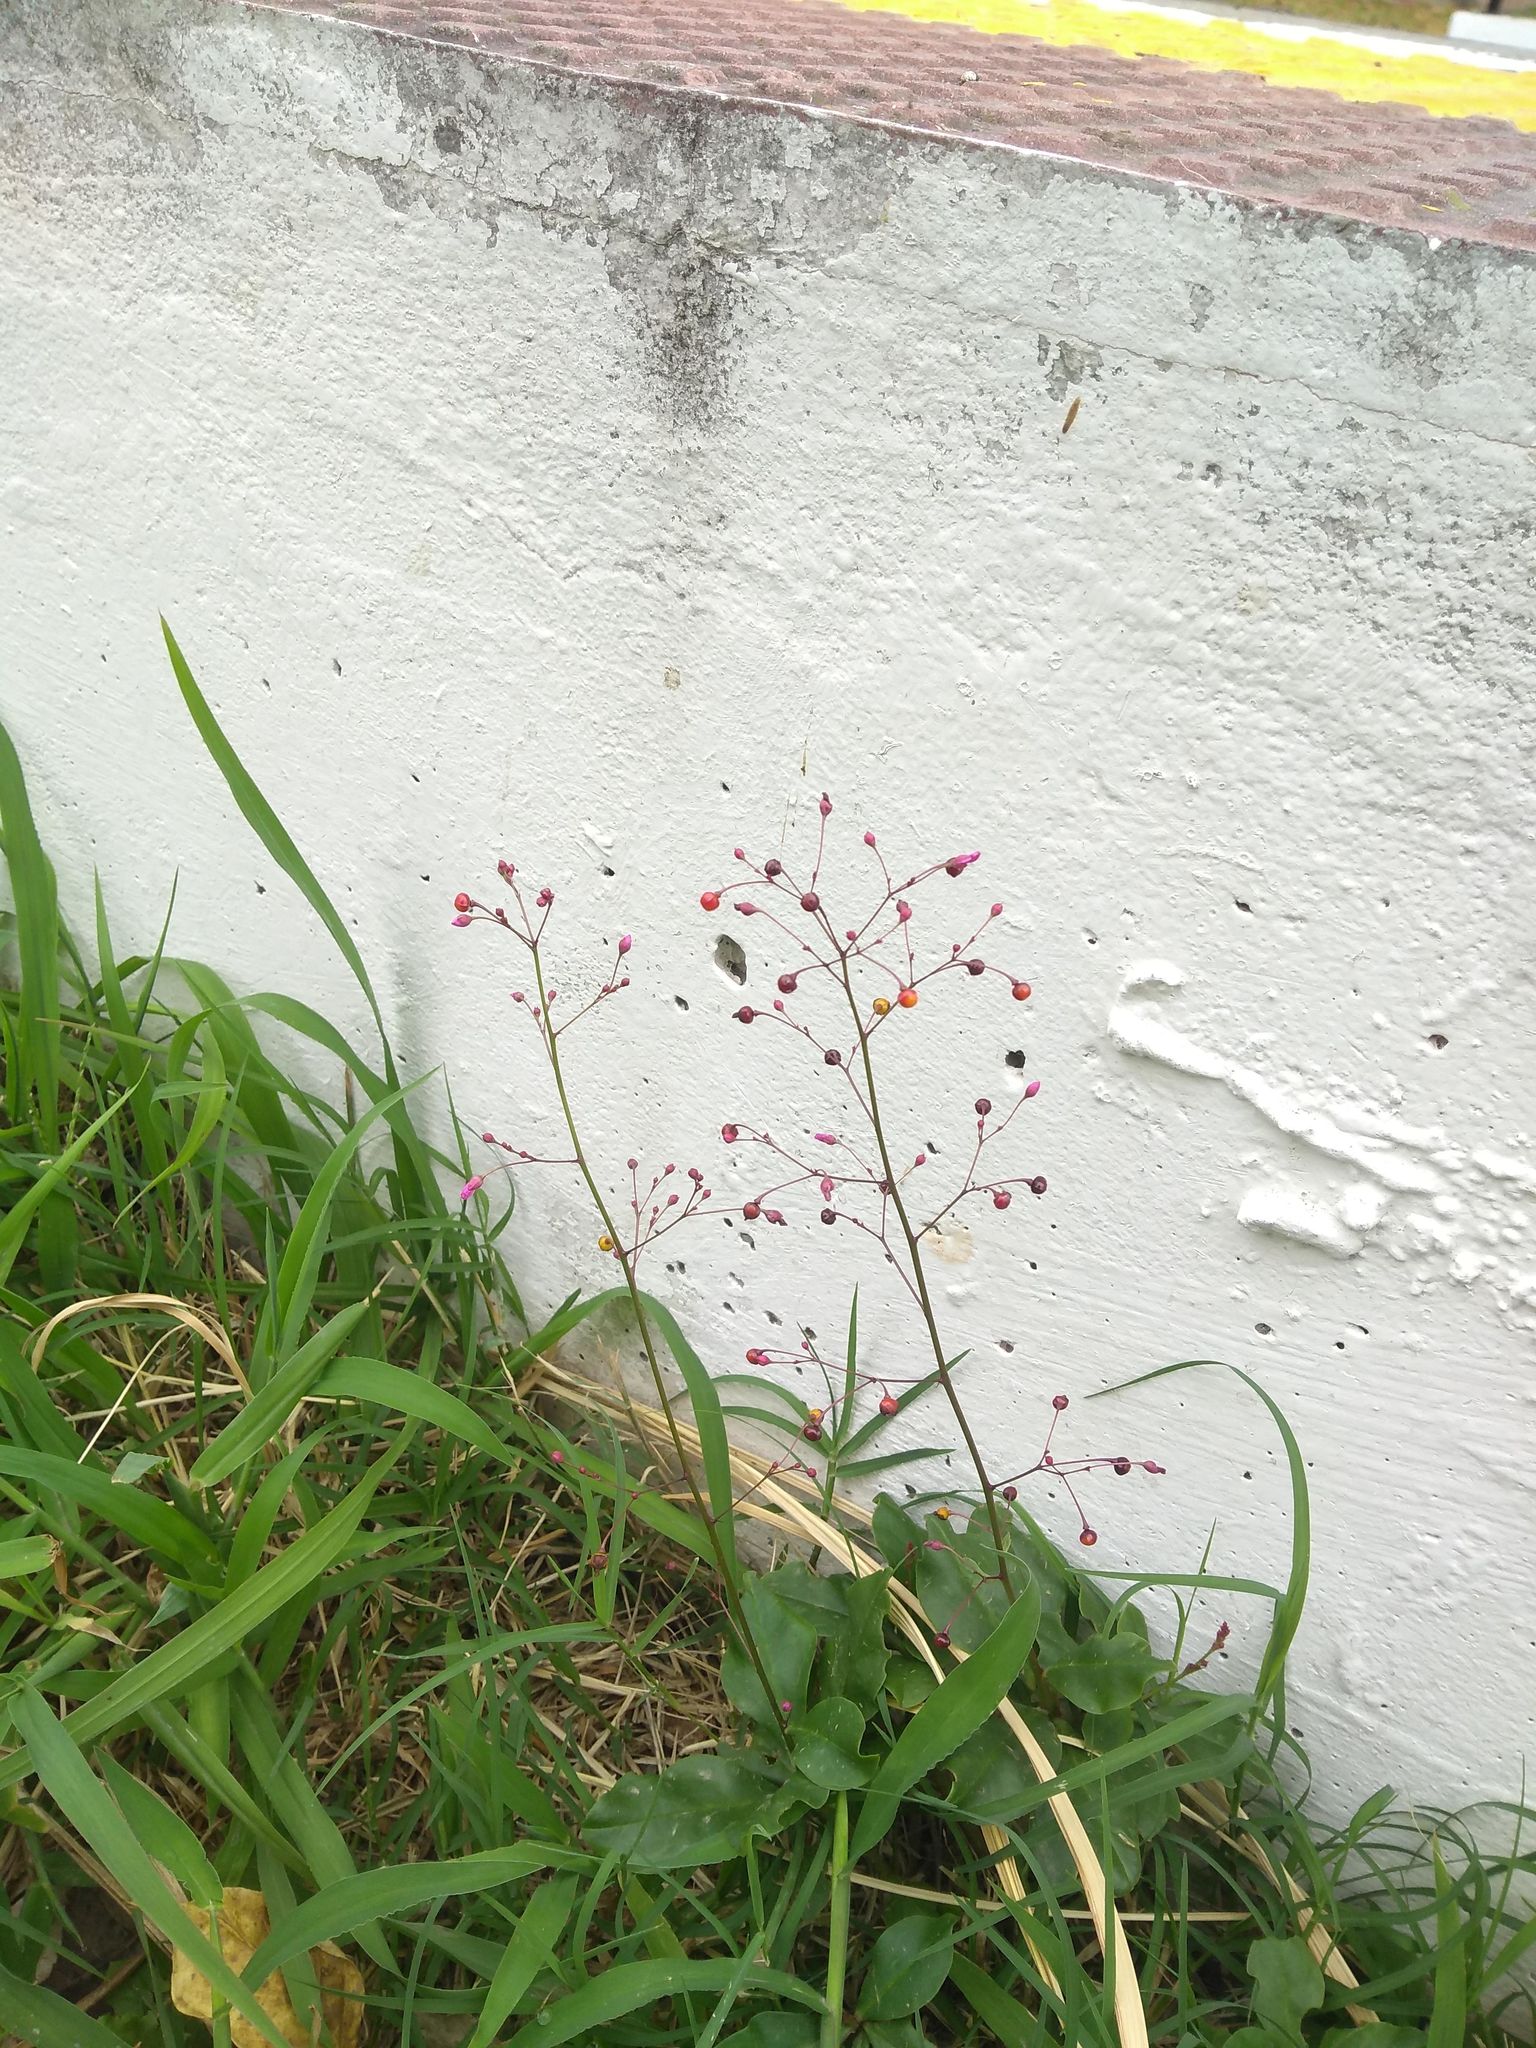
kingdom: Plantae
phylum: Tracheophyta
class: Magnoliopsida
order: Caryophyllales
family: Talinaceae
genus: Talinum
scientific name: Talinum paniculatum
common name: Jewels of opar
